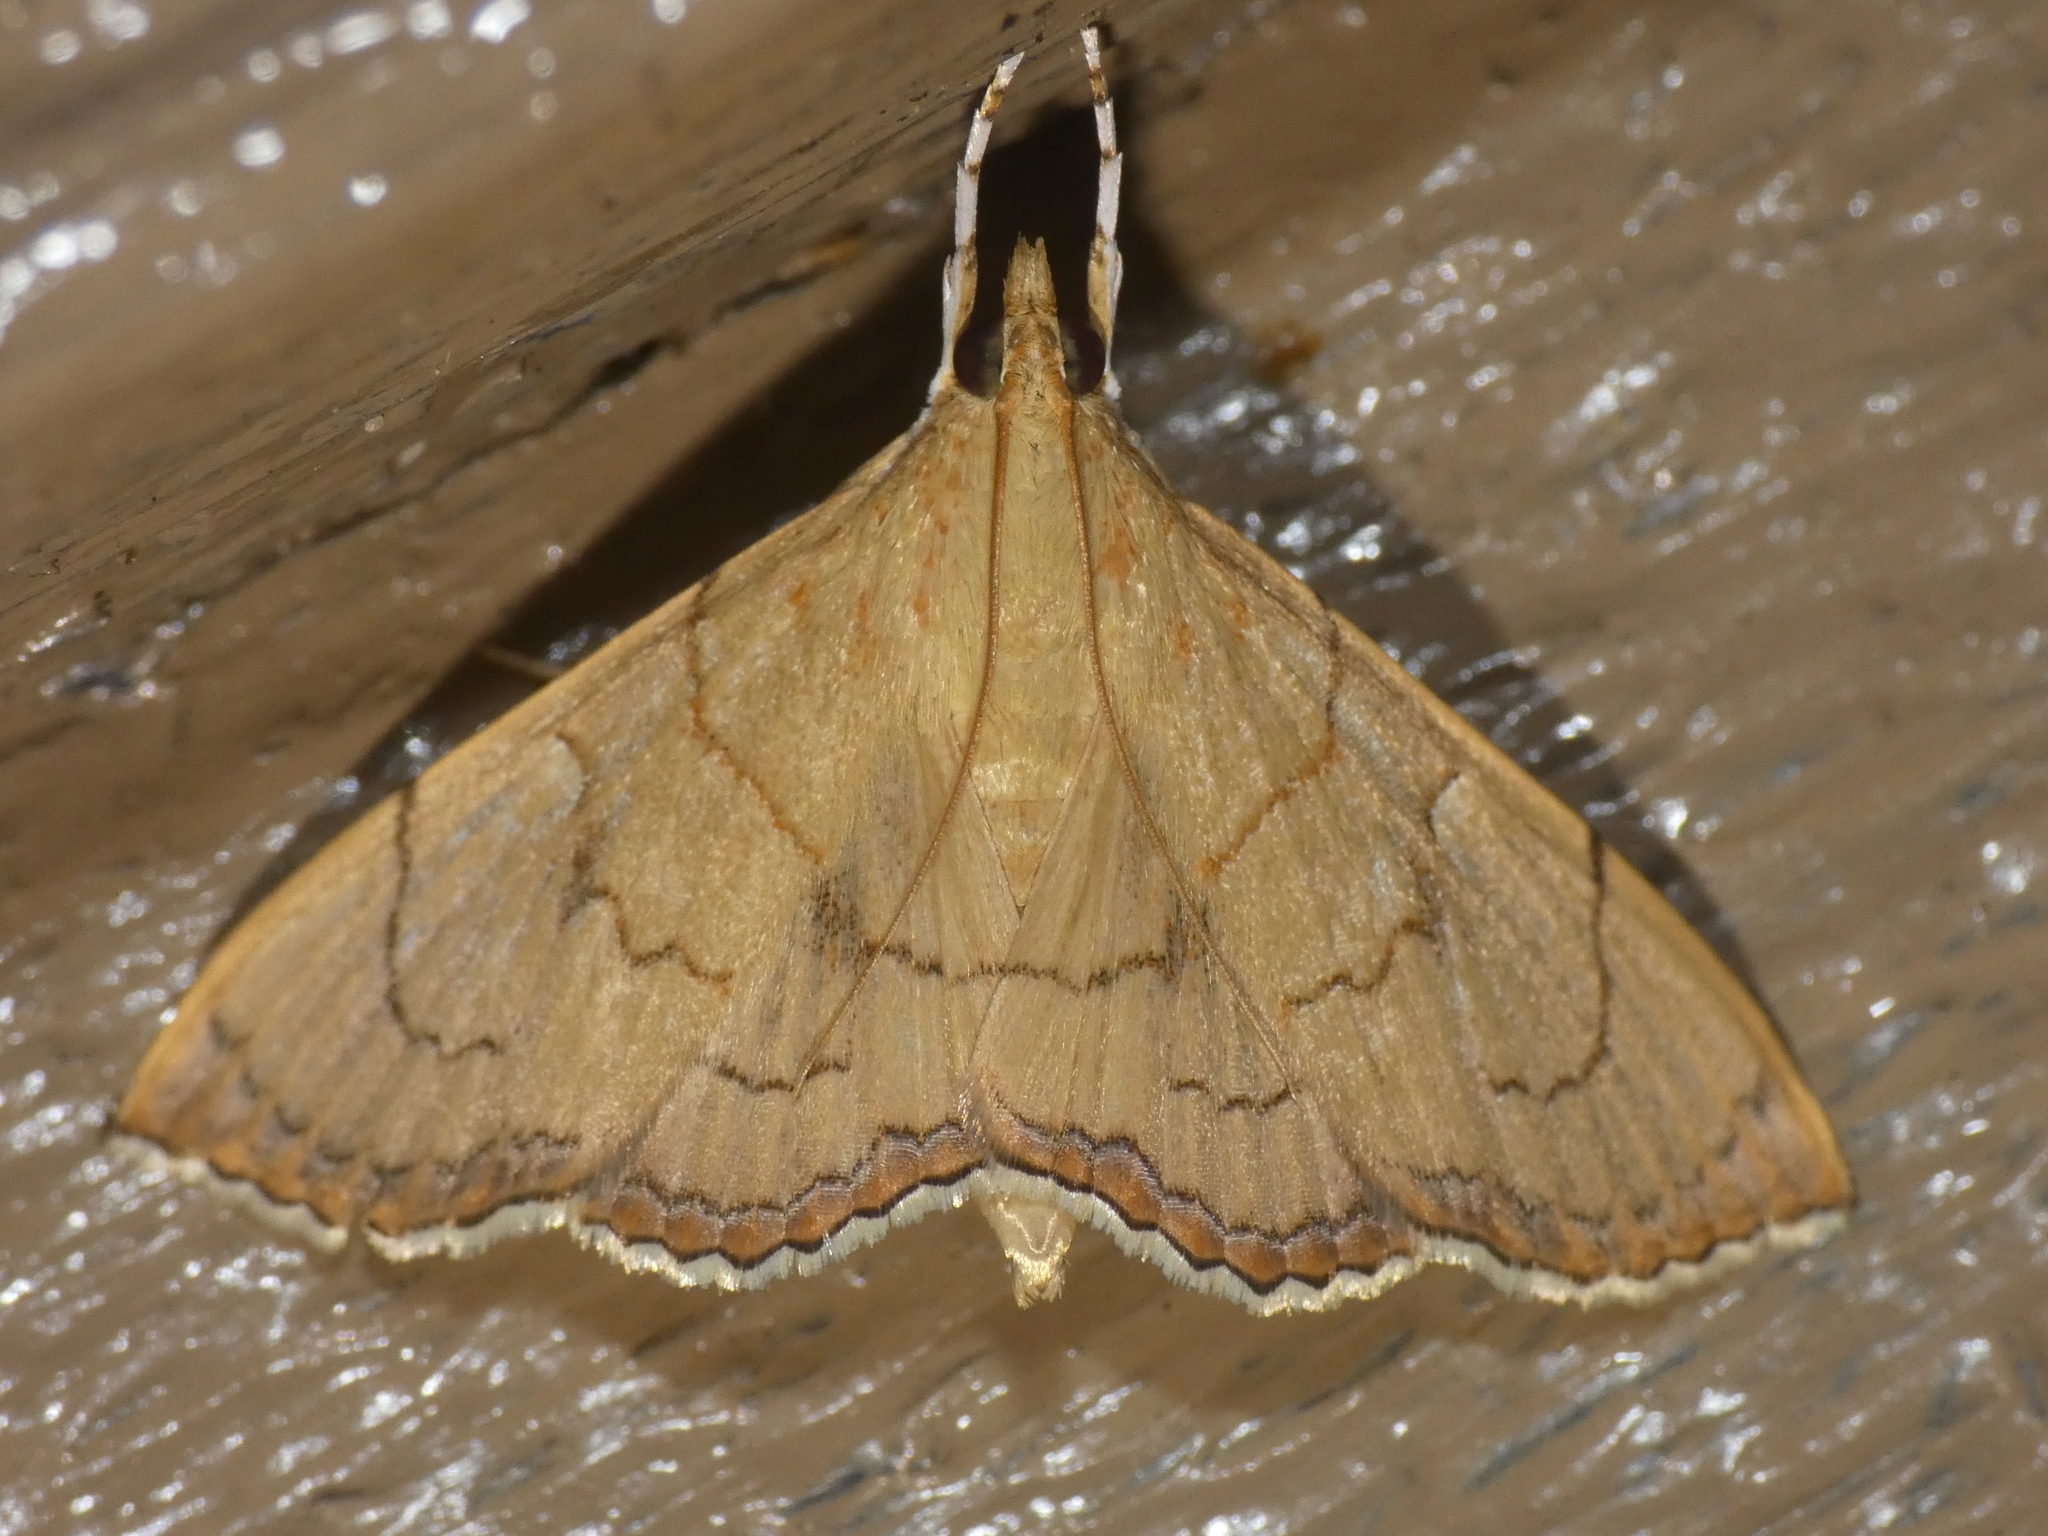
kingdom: Animalia
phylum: Arthropoda
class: Insecta
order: Lepidoptera
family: Crambidae
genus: Hyalobathra
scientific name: Hyalobathra crenulata
